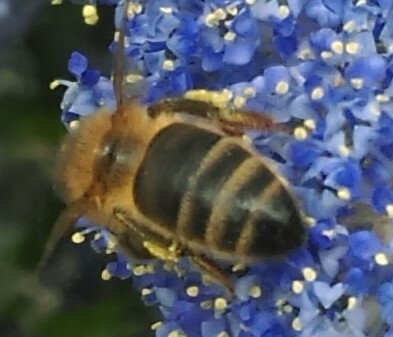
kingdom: Animalia
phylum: Arthropoda
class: Insecta
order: Hymenoptera
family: Apidae
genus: Apis
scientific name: Apis mellifera
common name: Honey bee
